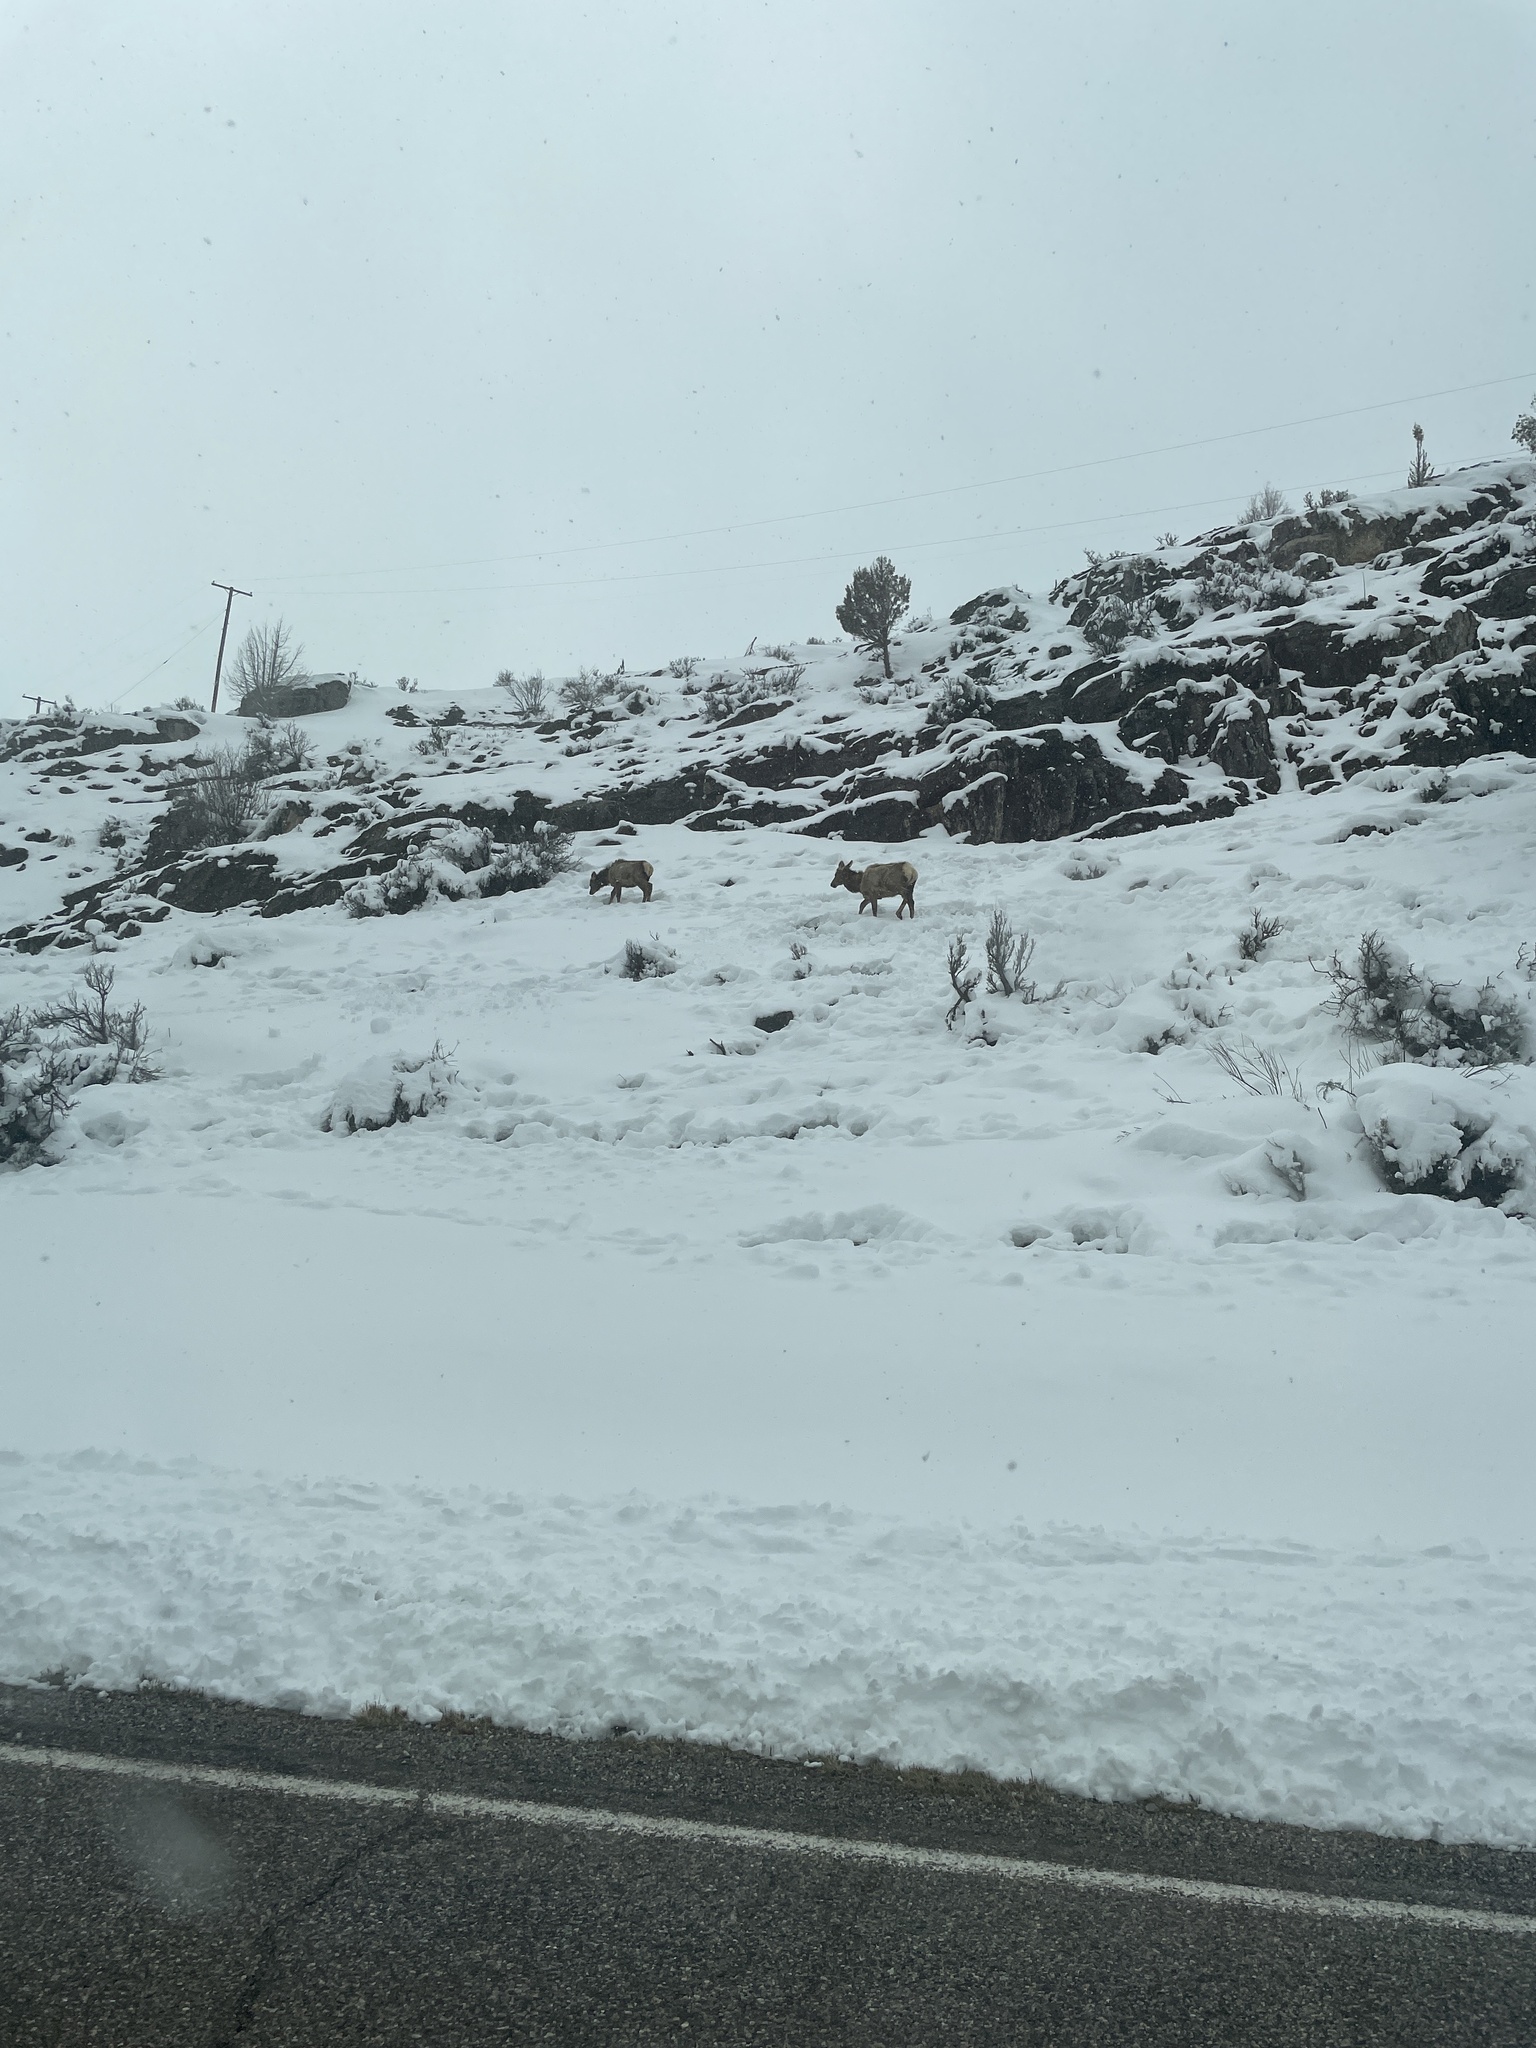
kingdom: Animalia
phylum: Chordata
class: Mammalia
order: Artiodactyla
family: Cervidae
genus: Cervus
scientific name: Cervus elaphus
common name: Red deer
